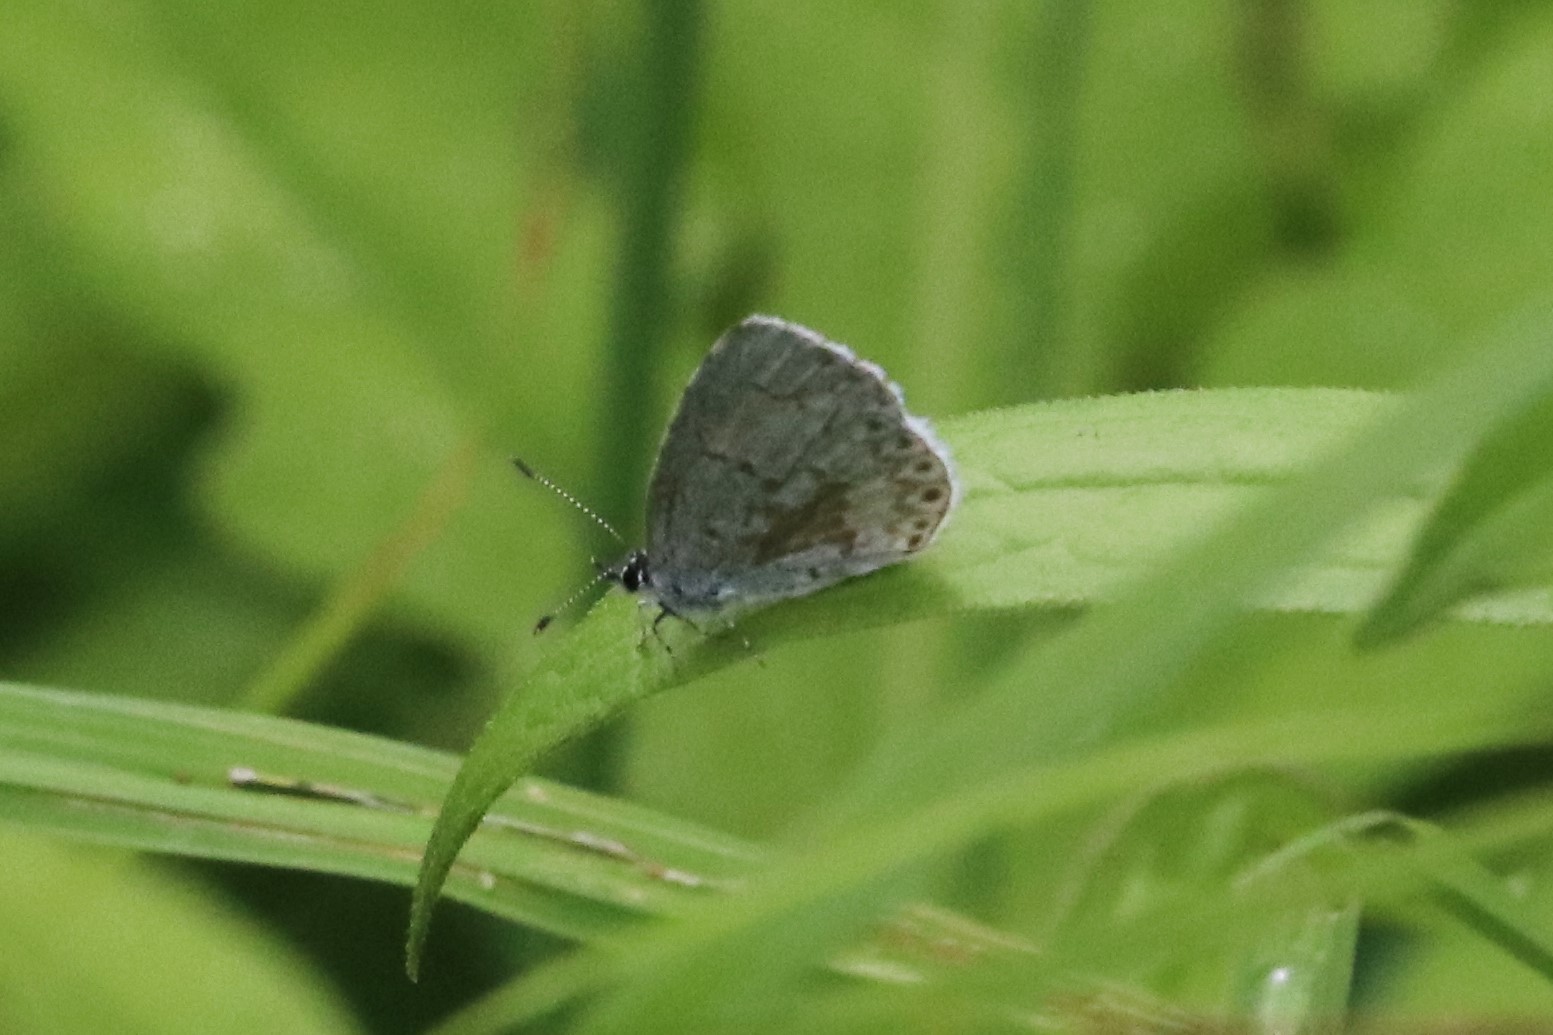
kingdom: Animalia
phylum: Arthropoda
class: Insecta
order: Lepidoptera
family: Lycaenidae
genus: Celastrina
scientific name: Celastrina lucia
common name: Lucia azure
